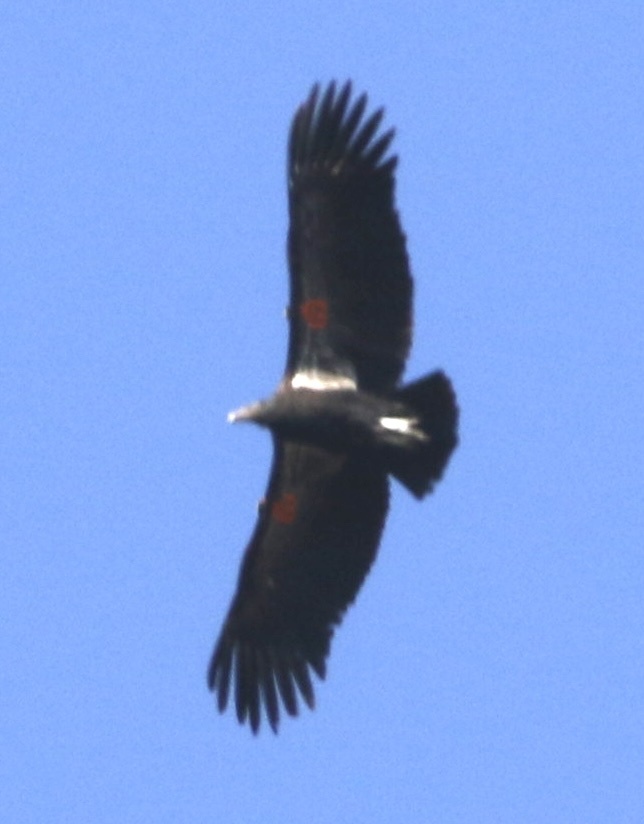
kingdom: Animalia
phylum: Chordata
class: Aves
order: Accipitriformes
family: Cathartidae
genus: Gymnogyps
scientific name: Gymnogyps californianus
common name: California condor
